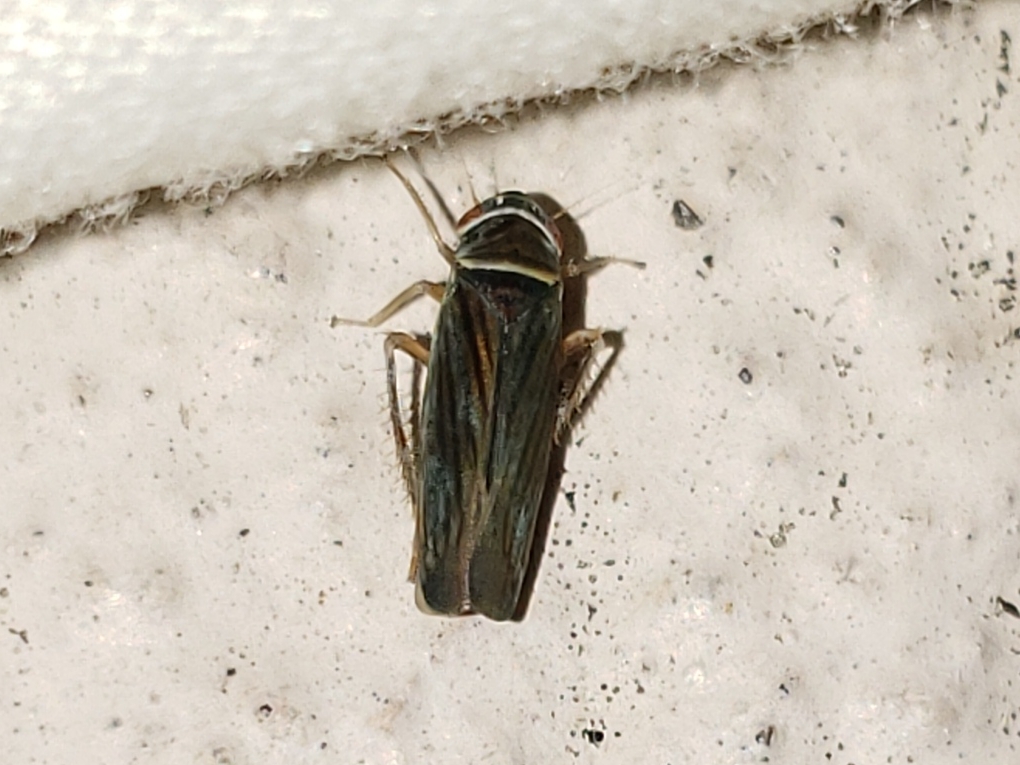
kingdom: Animalia
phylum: Arthropoda
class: Insecta
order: Hemiptera
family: Cicadellidae
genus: Tylozygus
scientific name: Tylozygus bifidus
